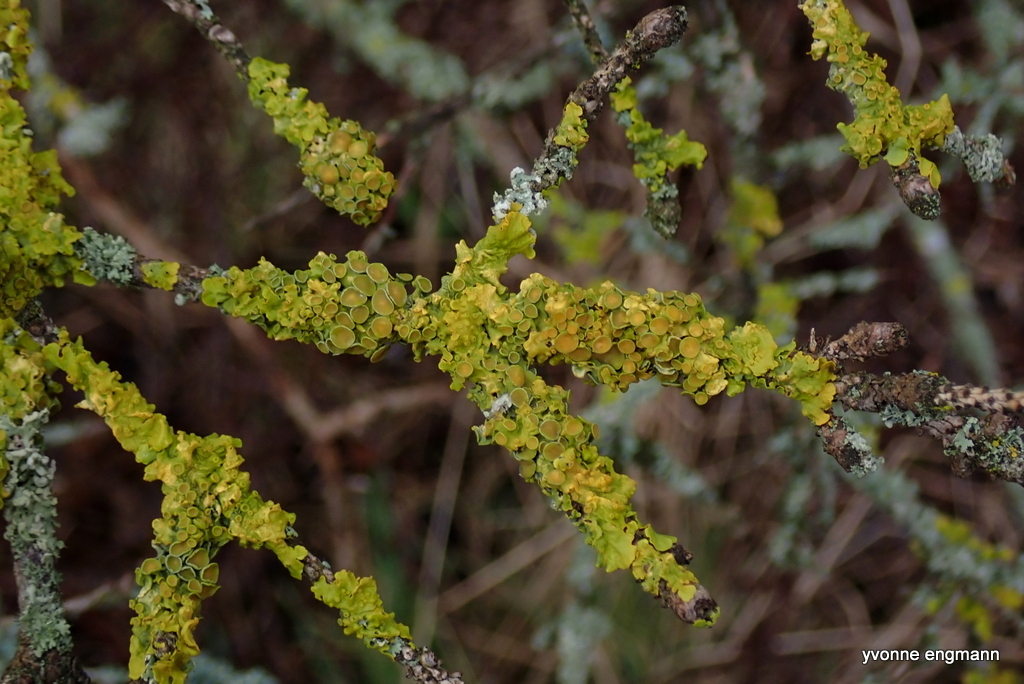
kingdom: Fungi
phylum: Ascomycota
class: Lecanoromycetes
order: Teloschistales
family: Teloschistaceae
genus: Xanthoria
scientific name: Xanthoria parietina
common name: Common orange lichen
